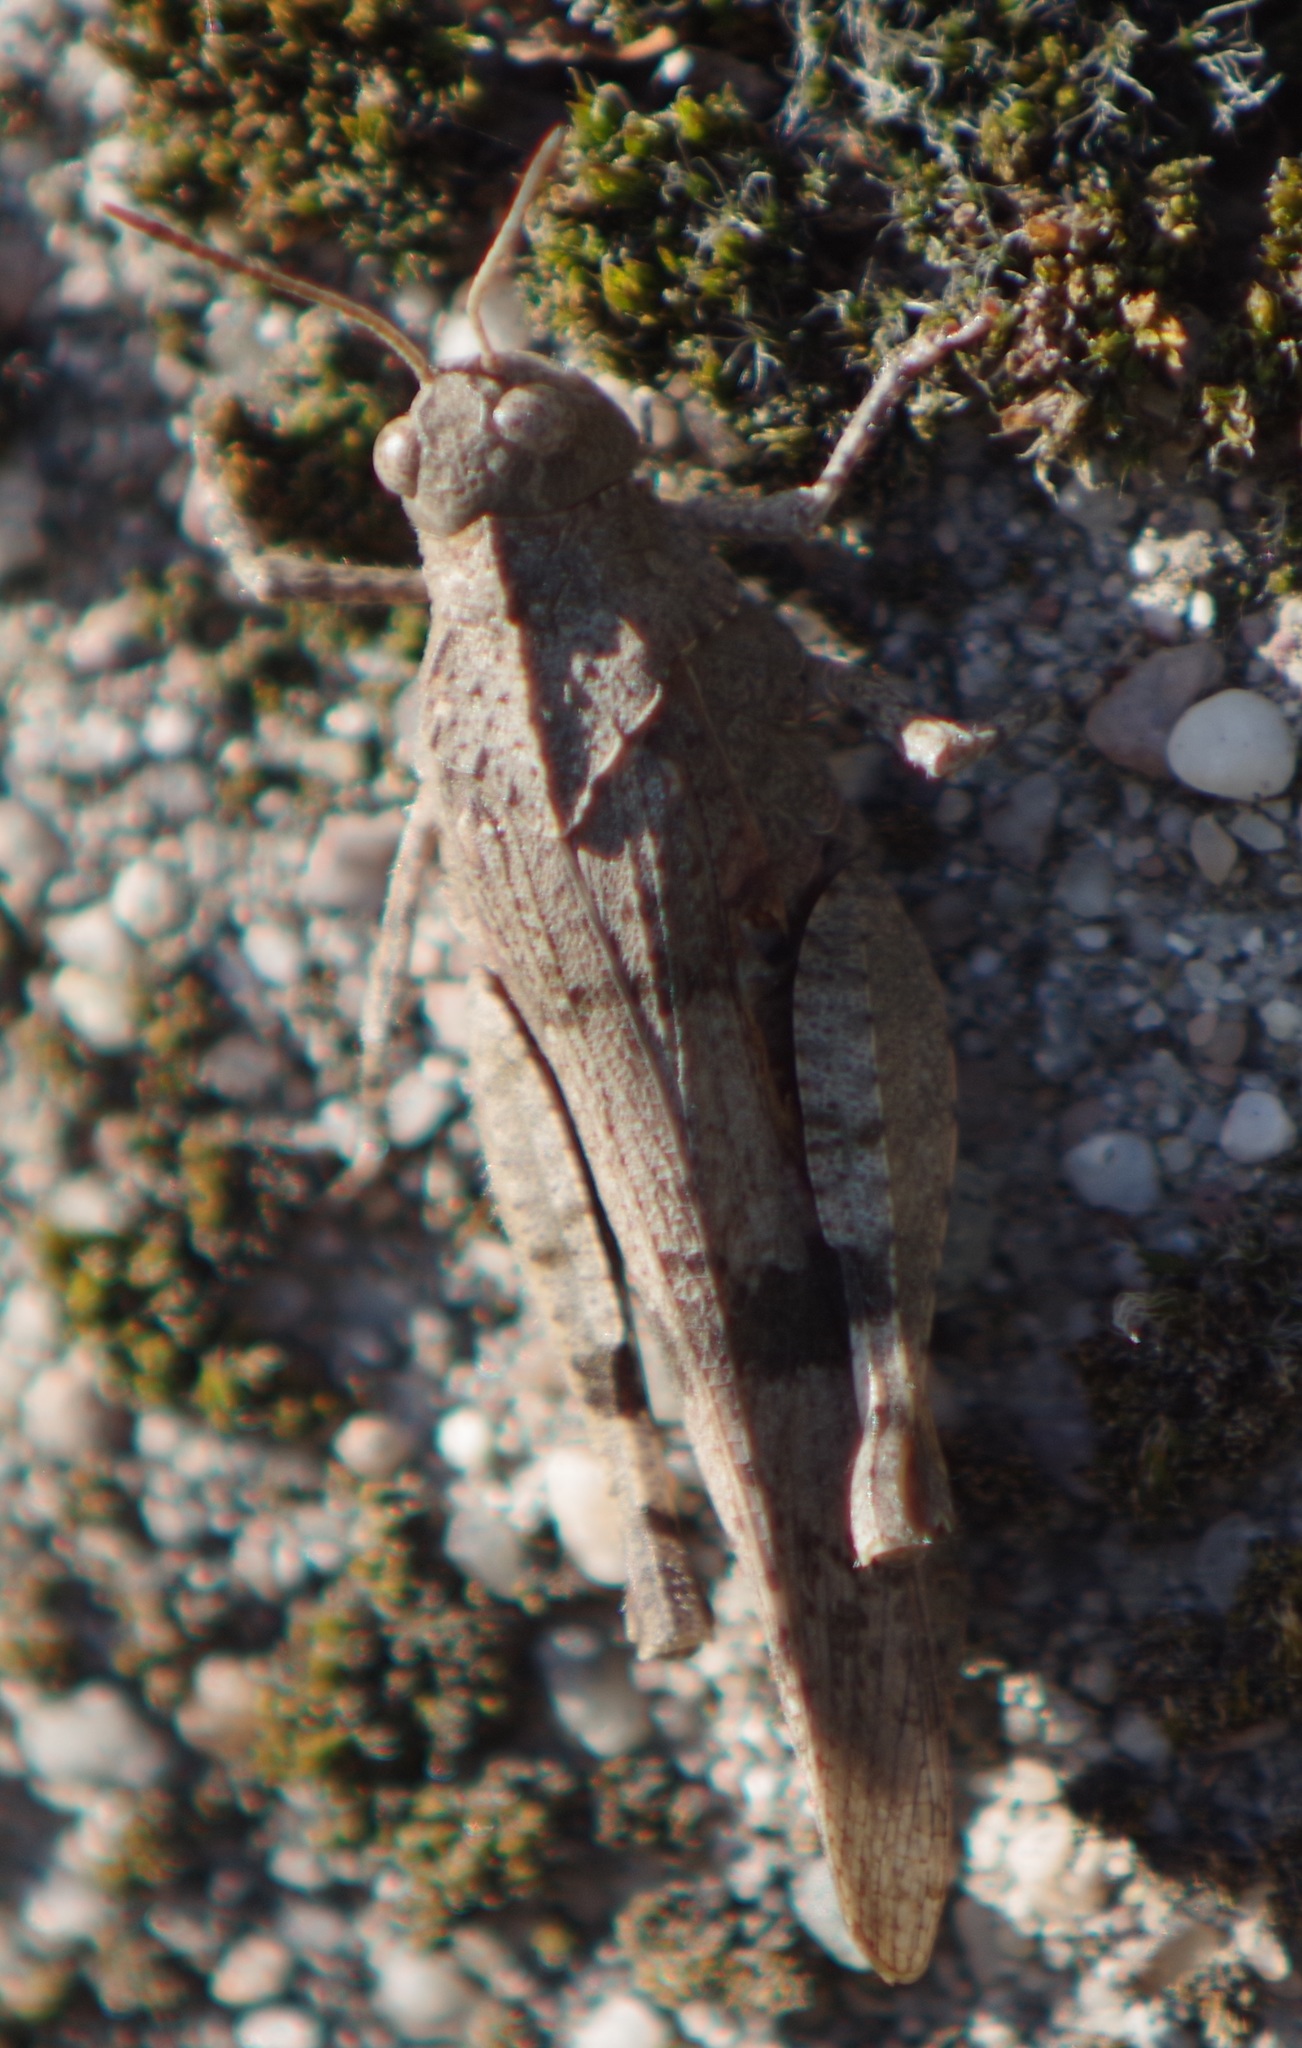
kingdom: Animalia
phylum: Arthropoda
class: Insecta
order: Orthoptera
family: Acrididae
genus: Oedipoda
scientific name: Oedipoda caerulescens
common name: Blue-winged grasshopper
